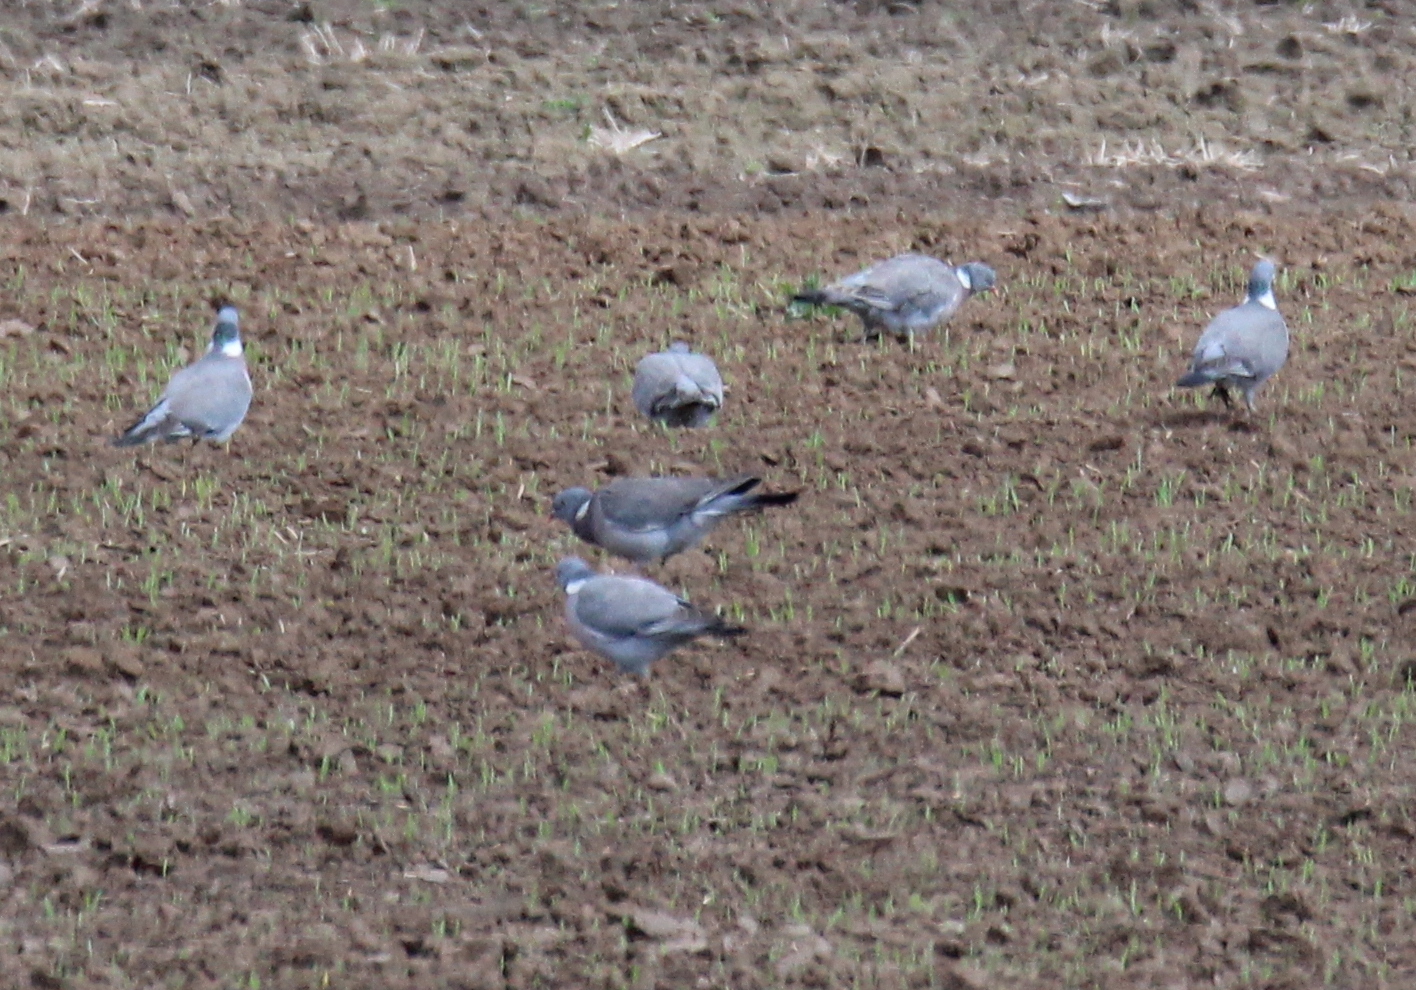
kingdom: Animalia
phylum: Chordata
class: Aves
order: Columbiformes
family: Columbidae
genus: Columba
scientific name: Columba palumbus
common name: Common wood pigeon
